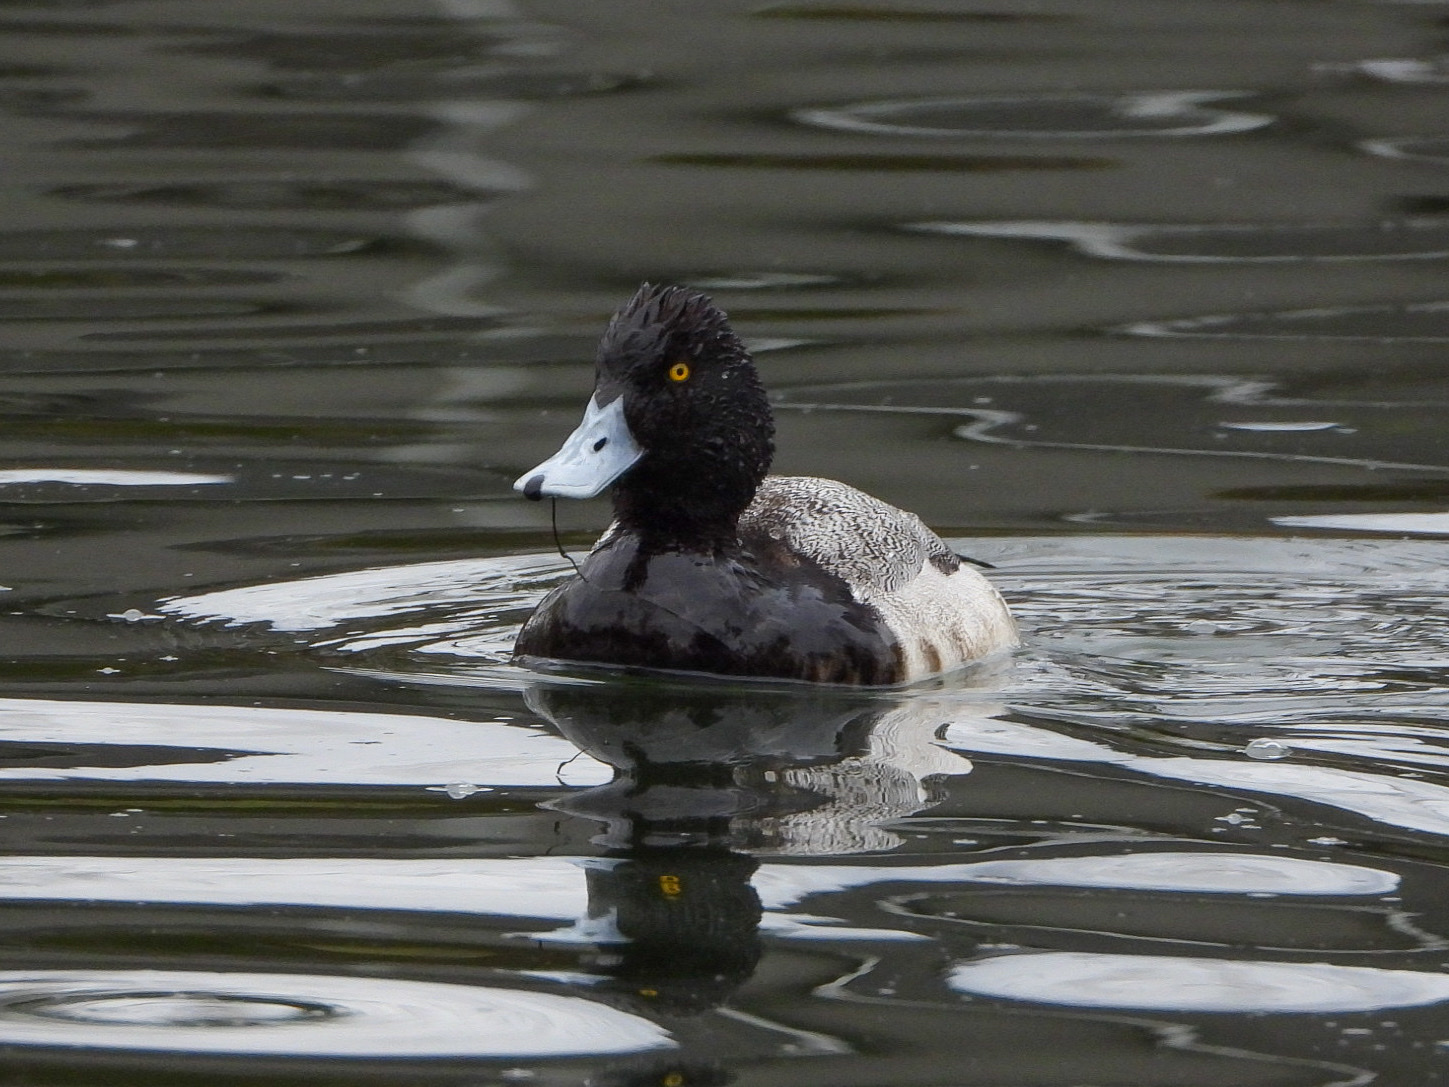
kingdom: Animalia
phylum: Chordata
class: Aves
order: Anseriformes
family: Anatidae
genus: Aythya
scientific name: Aythya affinis
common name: Lesser scaup
